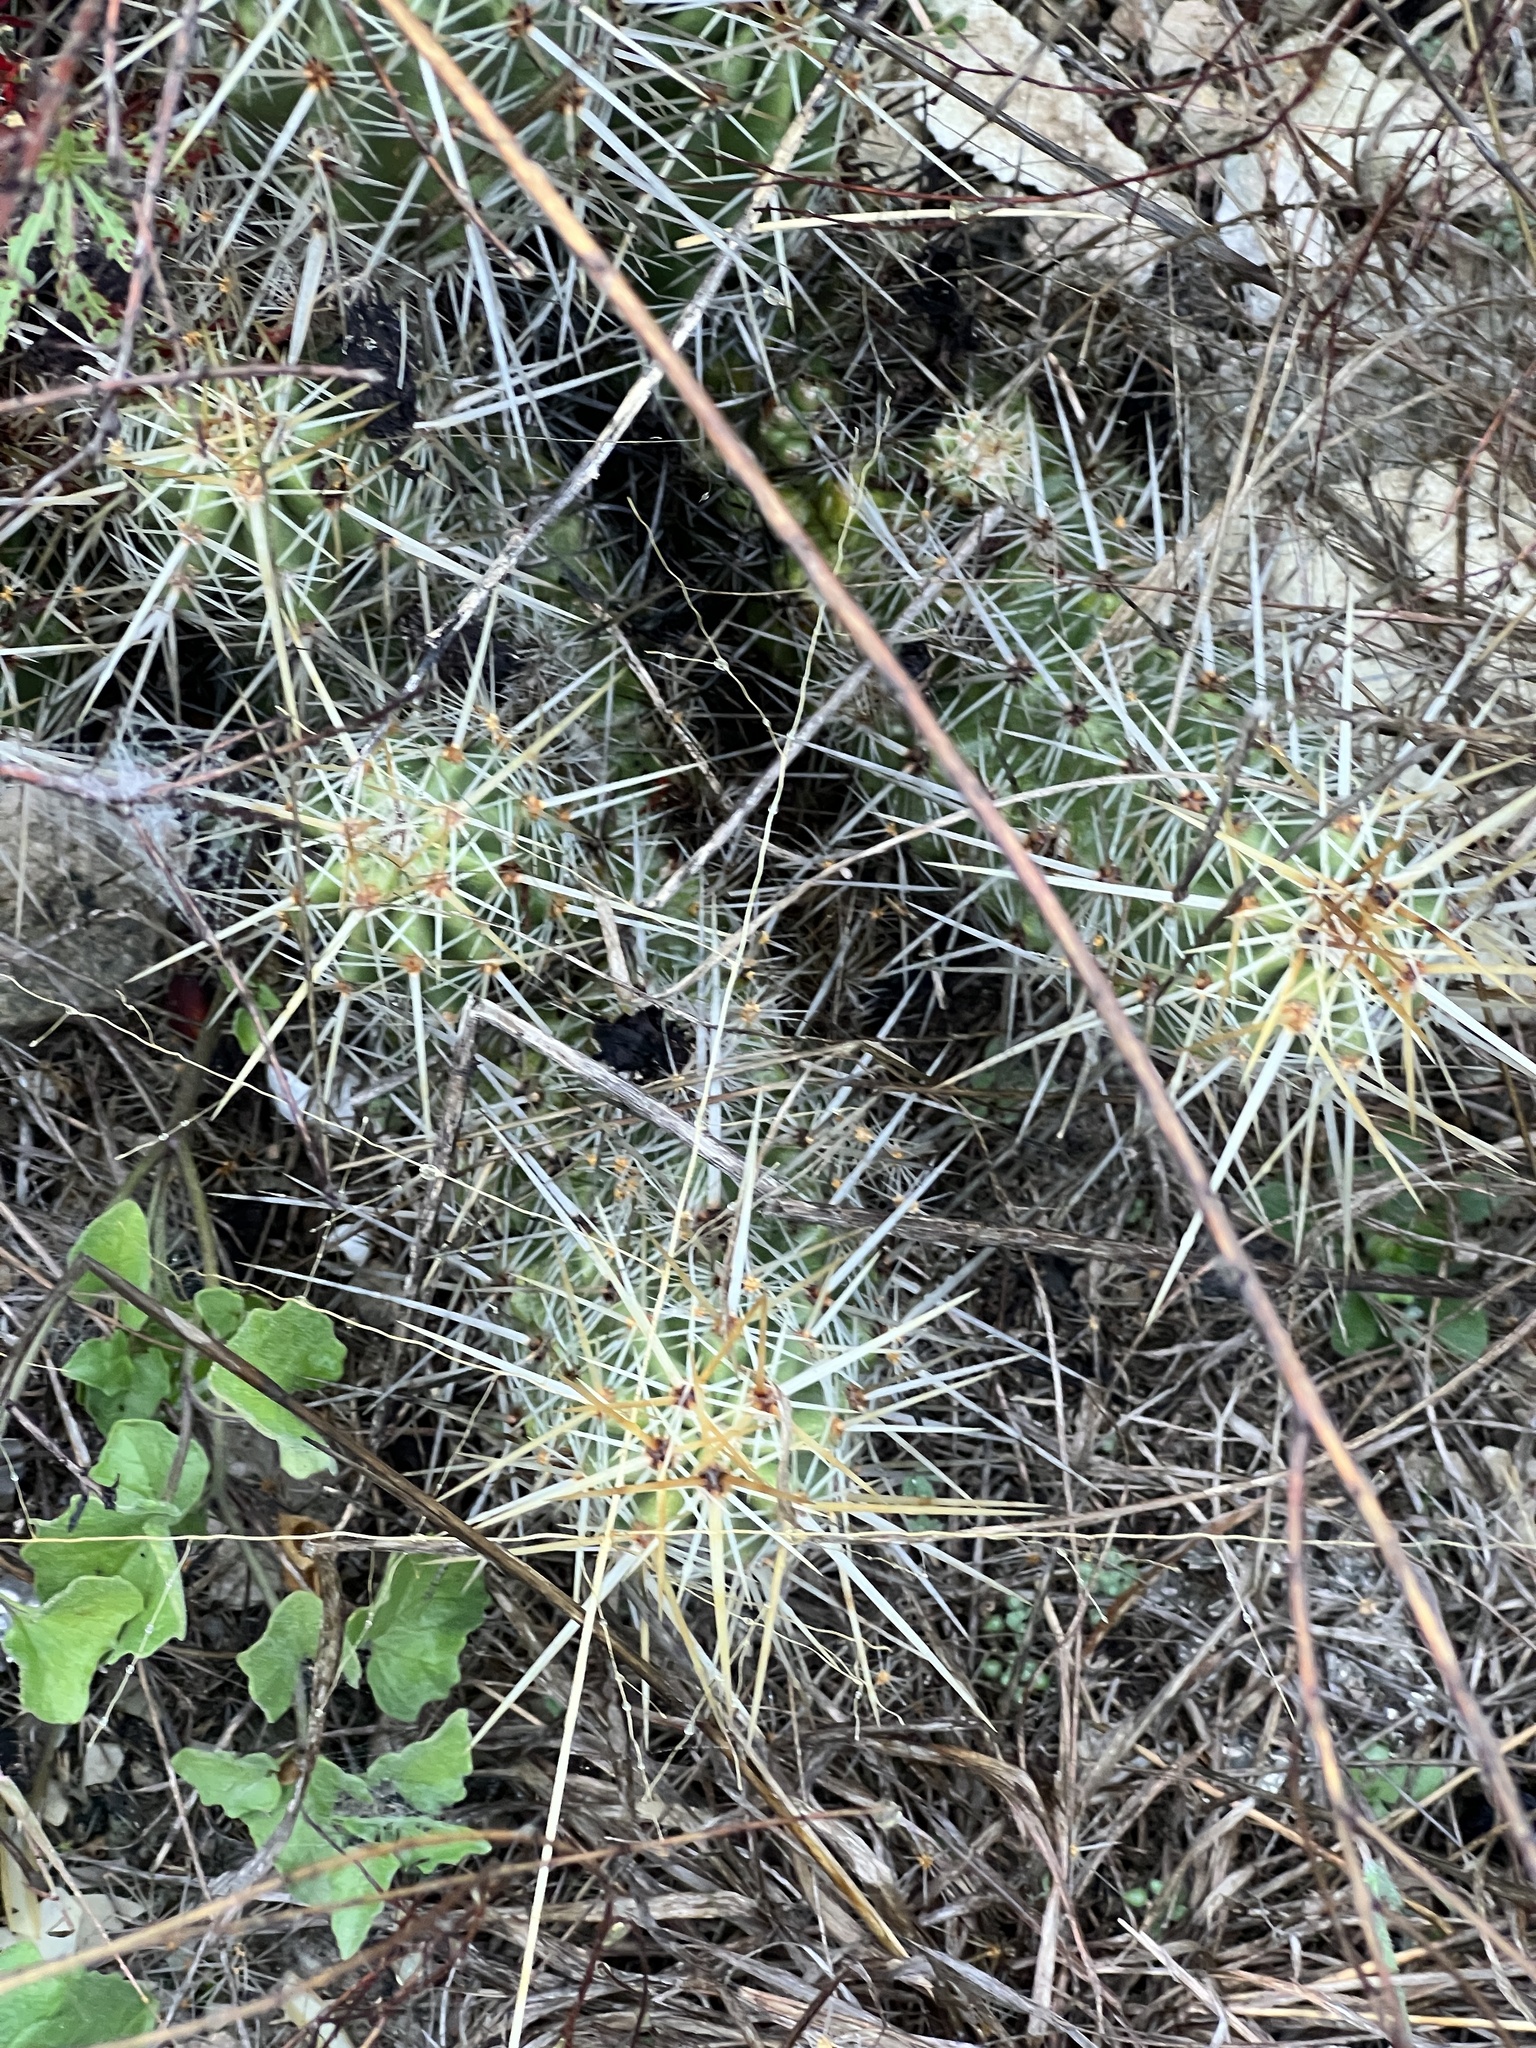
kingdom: Plantae
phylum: Tracheophyta
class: Magnoliopsida
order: Caryophyllales
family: Cactaceae
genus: Echinocereus
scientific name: Echinocereus enneacanthus
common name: Pitaya
